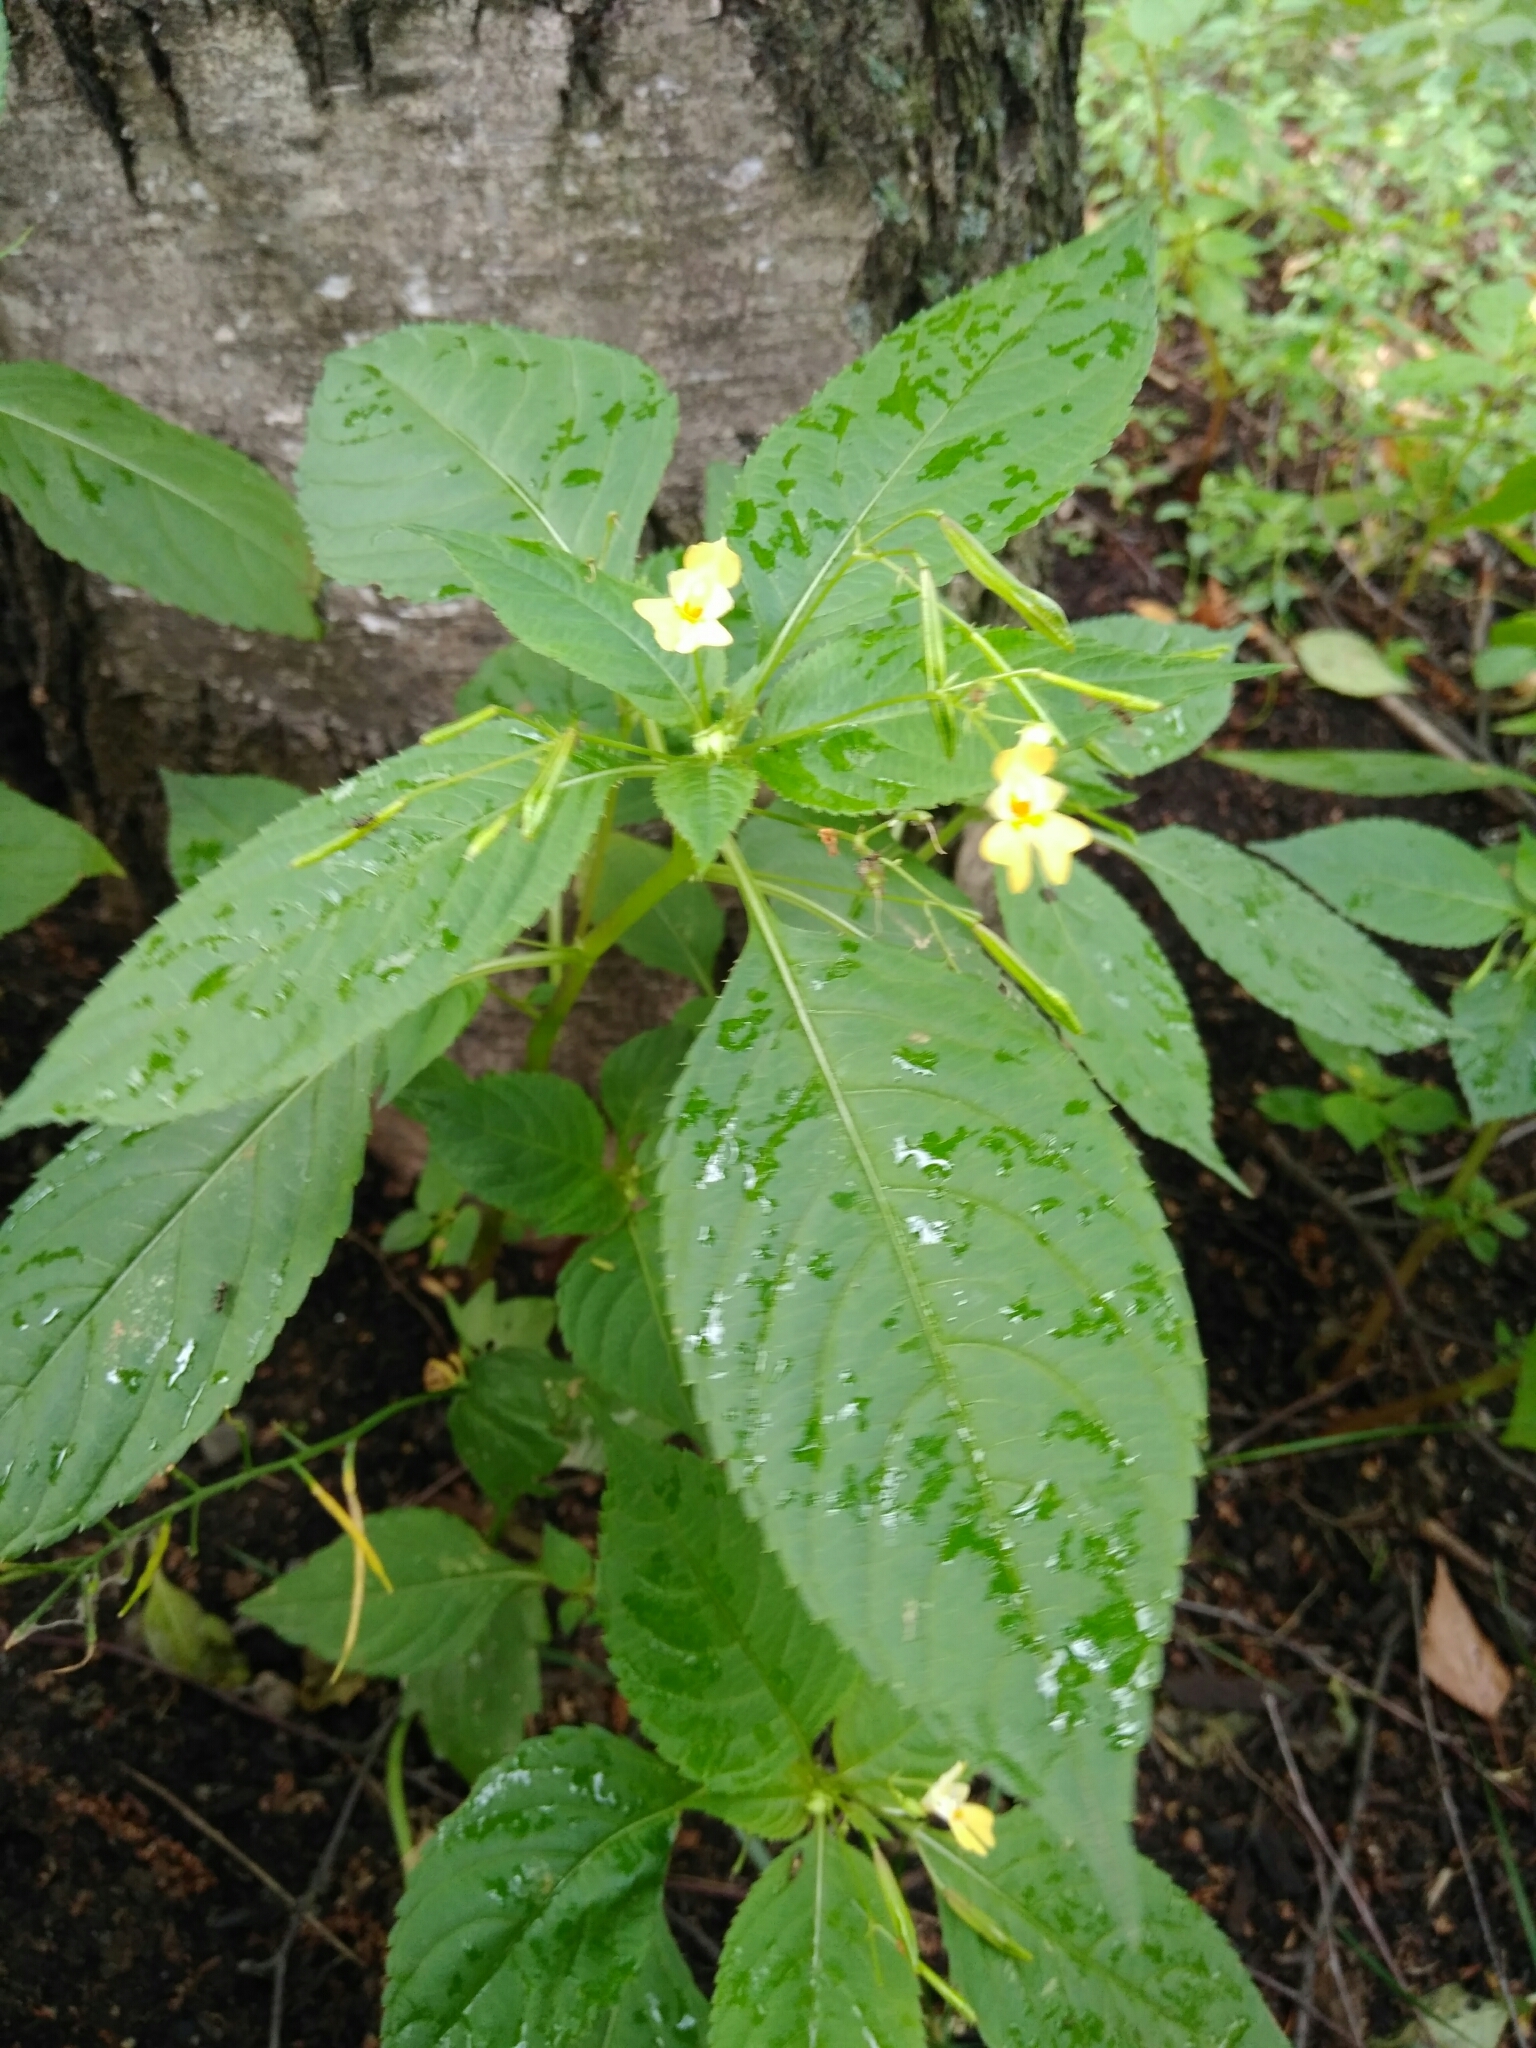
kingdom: Plantae
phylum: Tracheophyta
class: Magnoliopsida
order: Ericales
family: Balsaminaceae
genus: Impatiens
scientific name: Impatiens parviflora
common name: Small balsam
